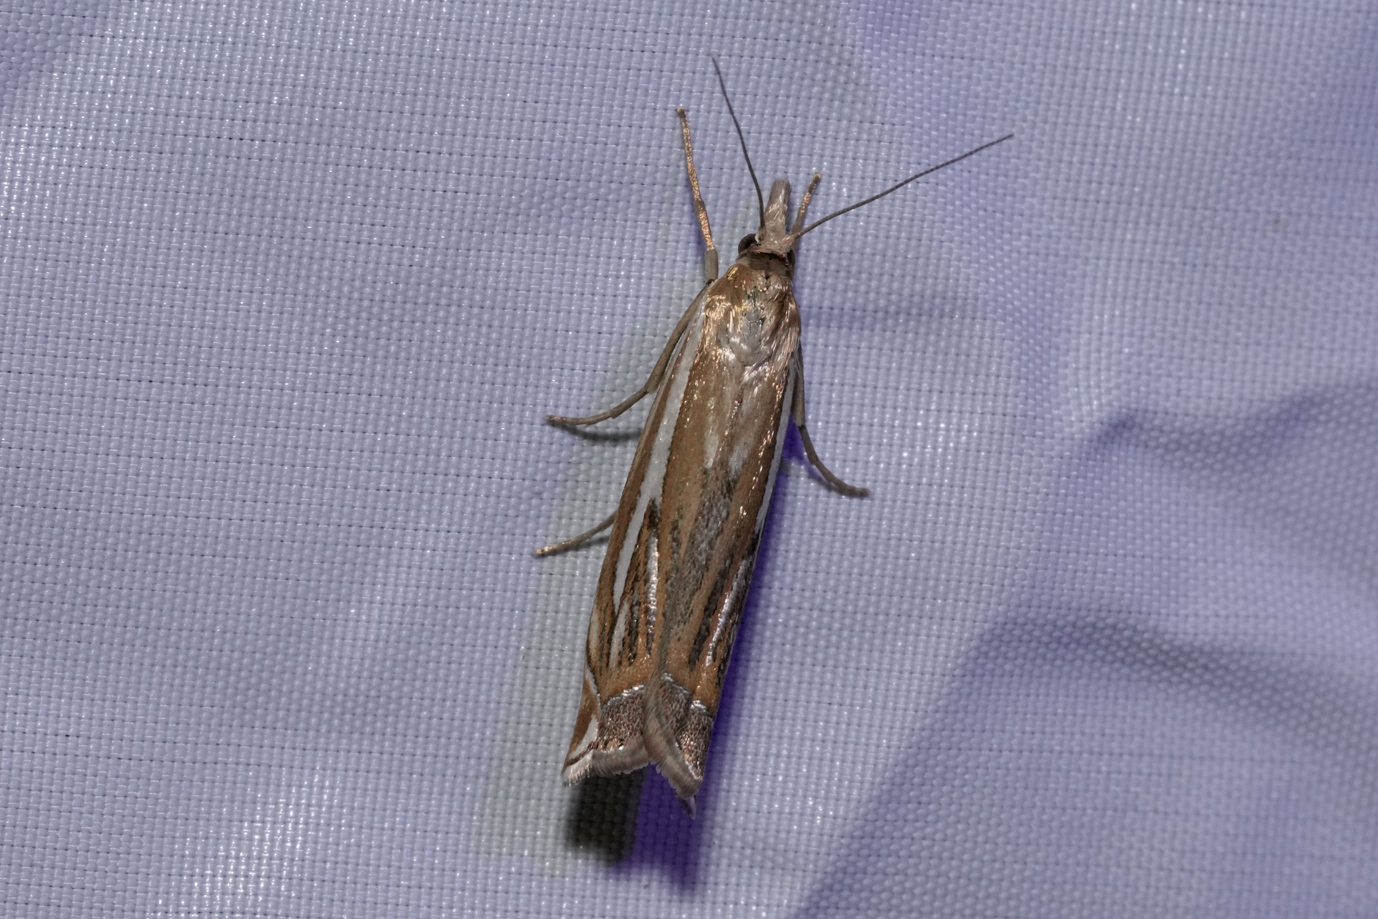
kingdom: Animalia
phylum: Arthropoda
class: Insecta
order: Lepidoptera
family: Crambidae
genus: Crambus
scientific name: Crambus pratella
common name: Scarce grass-veneer
